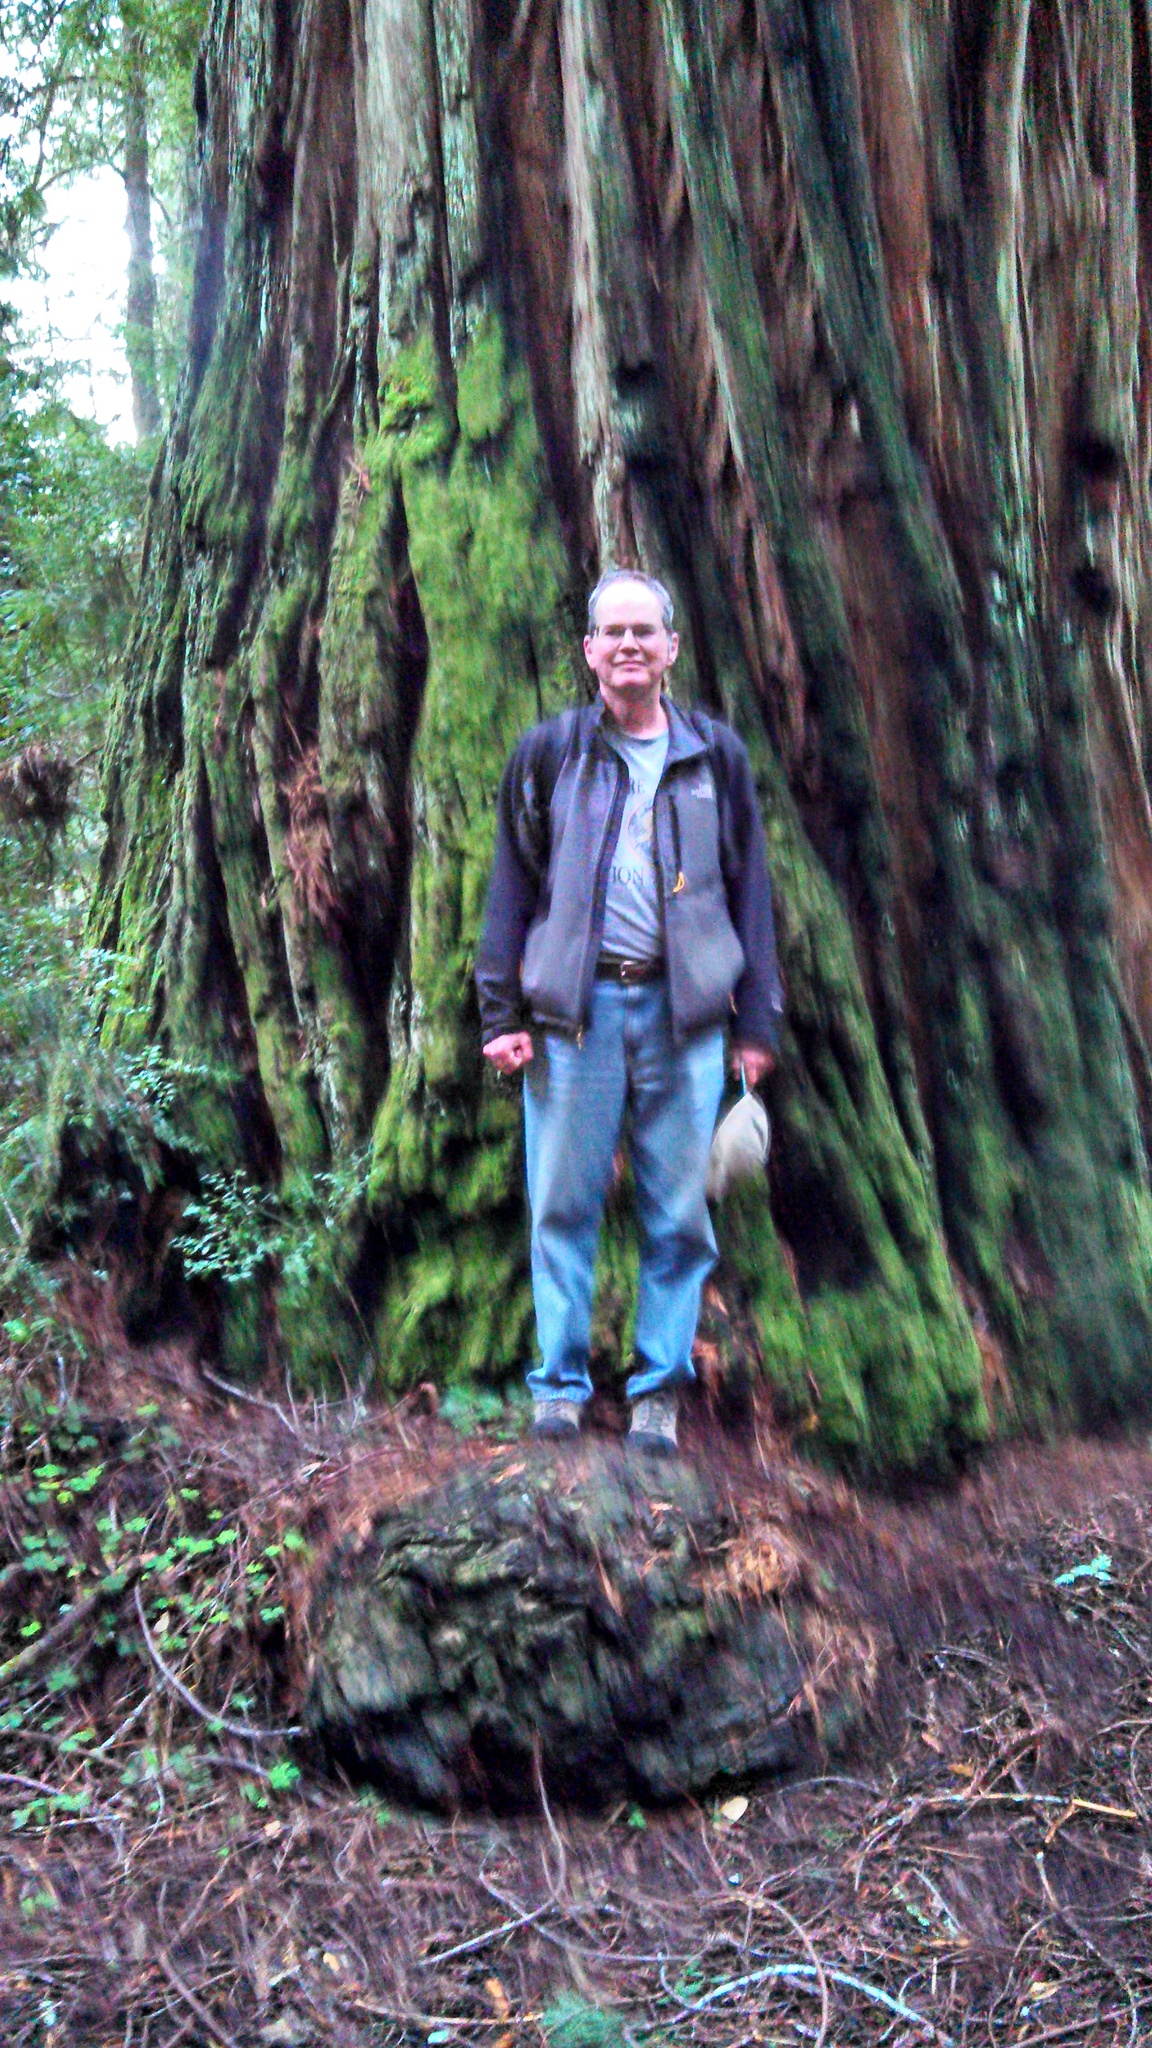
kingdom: Plantae
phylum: Tracheophyta
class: Pinopsida
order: Pinales
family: Cupressaceae
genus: Sequoia
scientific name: Sequoia sempervirens
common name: Coast redwood
